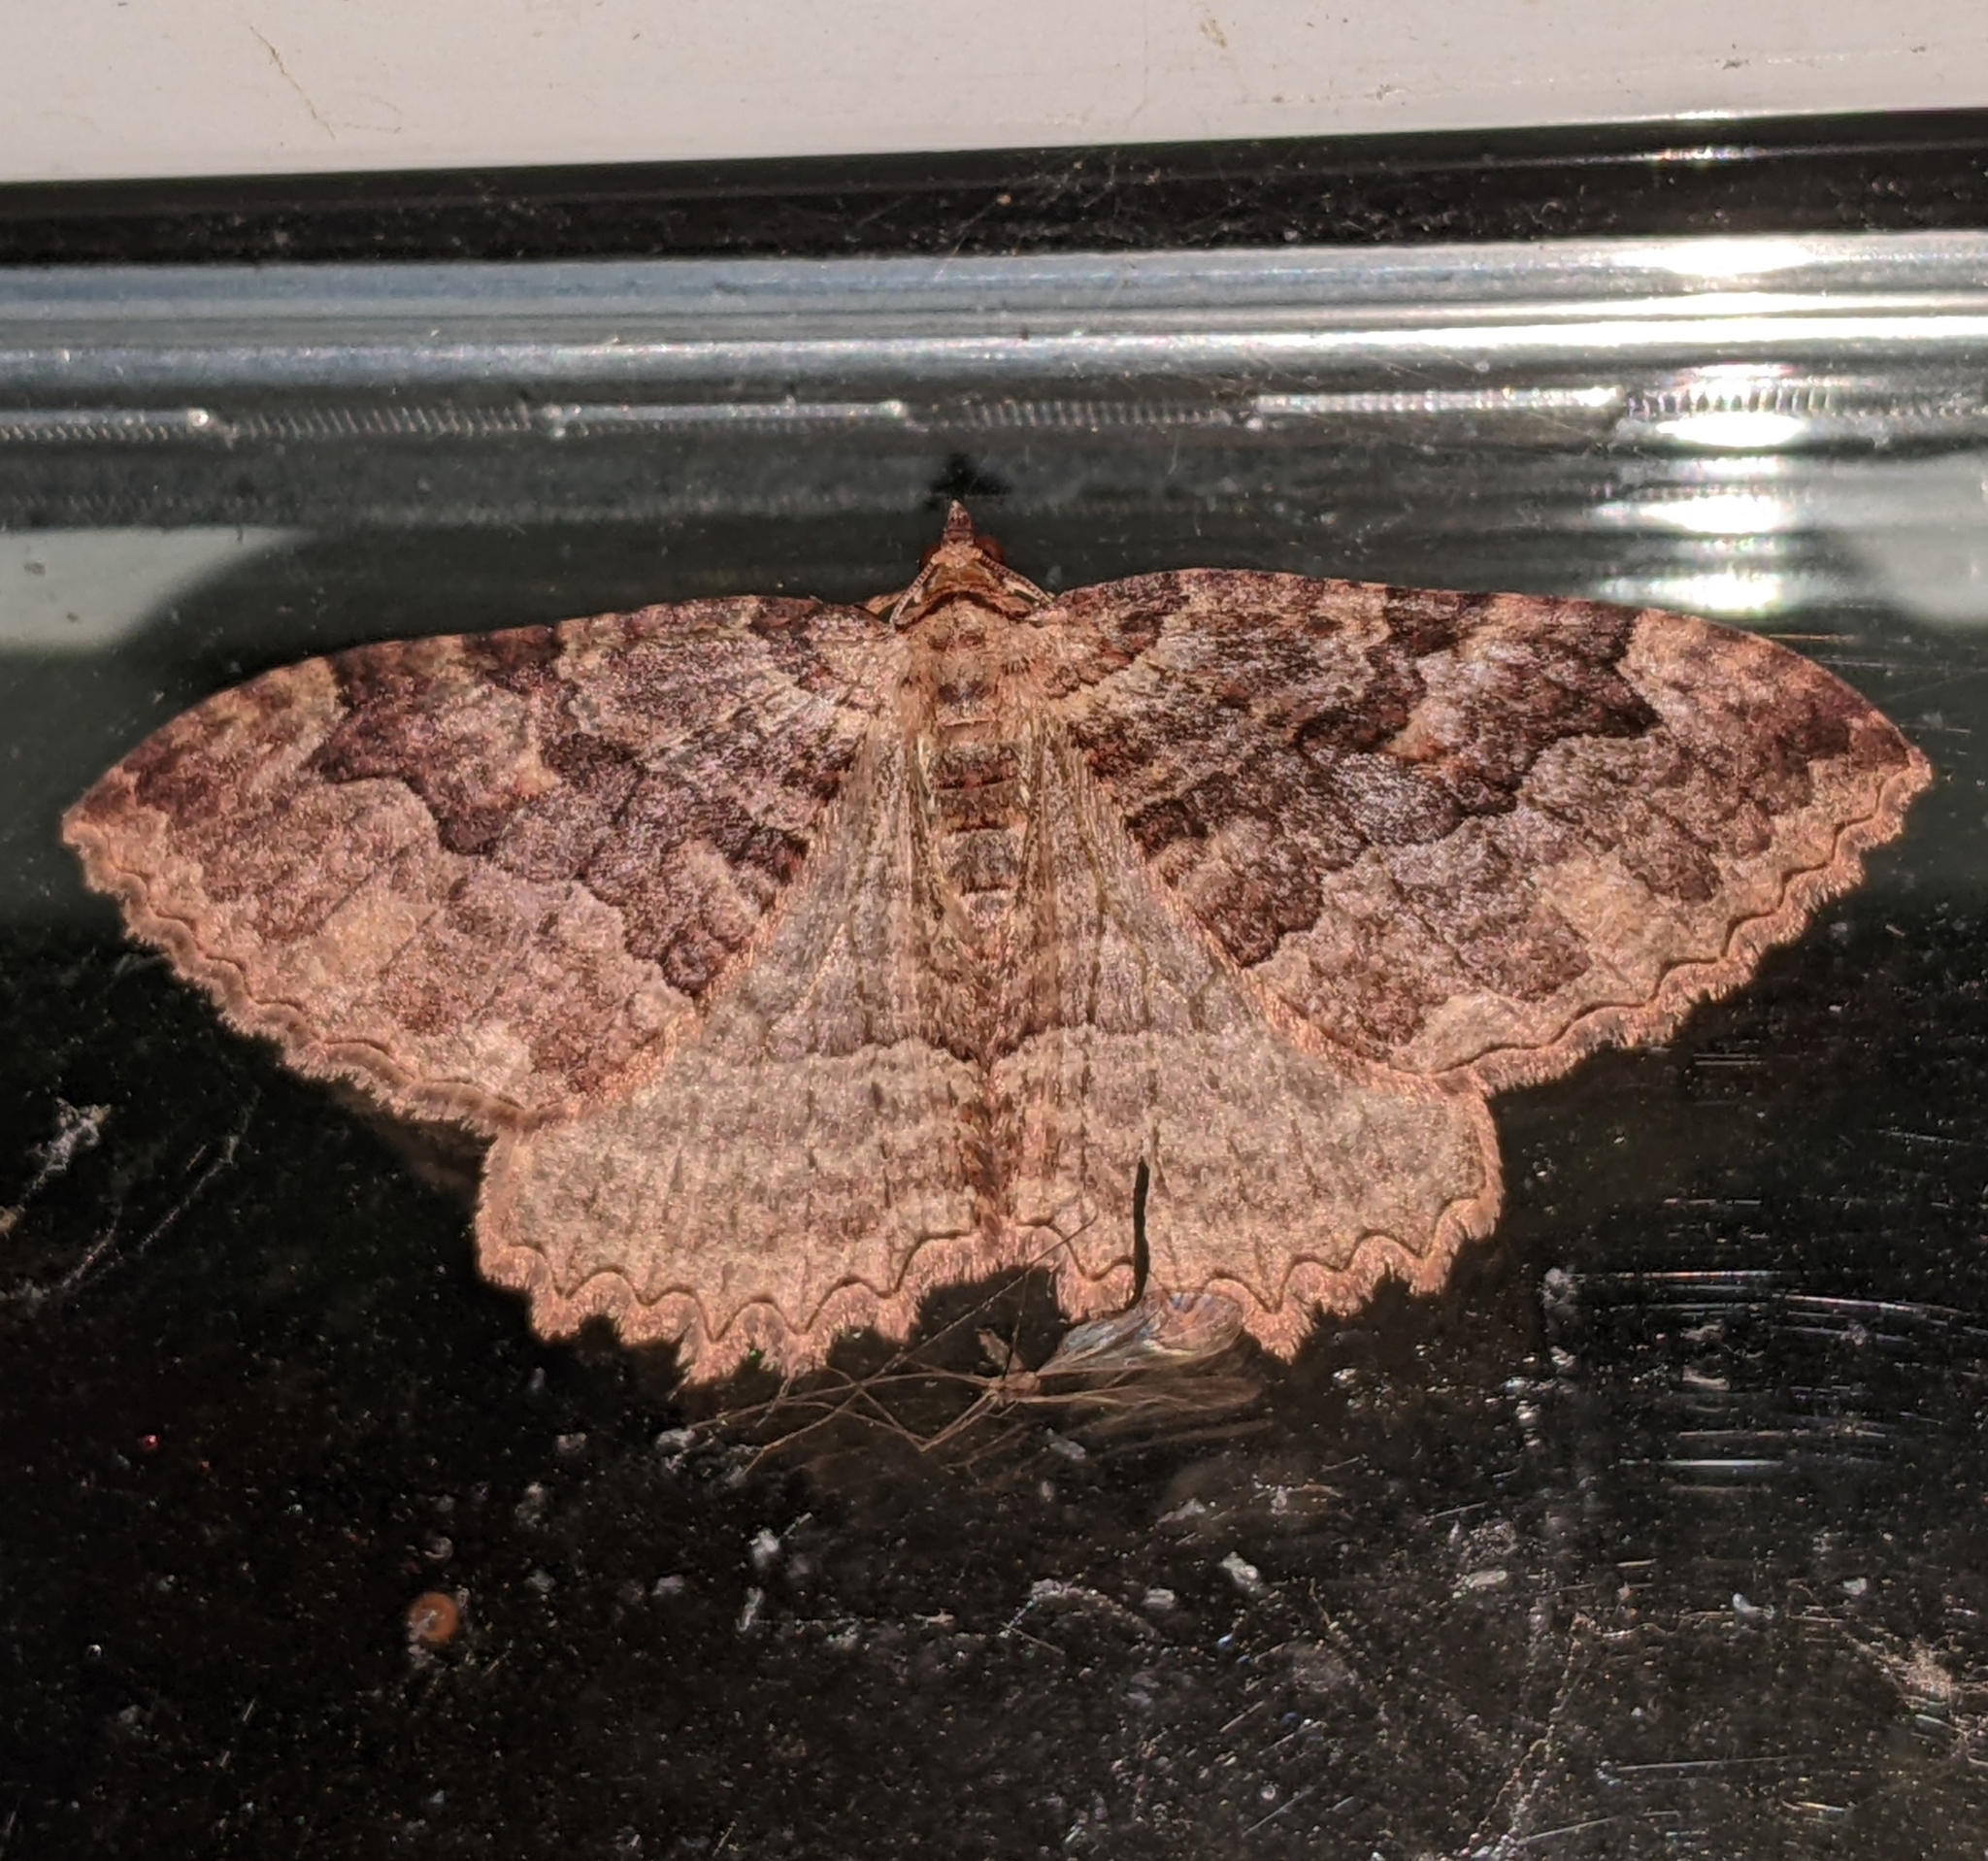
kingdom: Animalia
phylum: Arthropoda
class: Insecta
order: Lepidoptera
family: Geometridae
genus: Triphosa
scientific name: Triphosa haesitata
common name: Tissue moth
